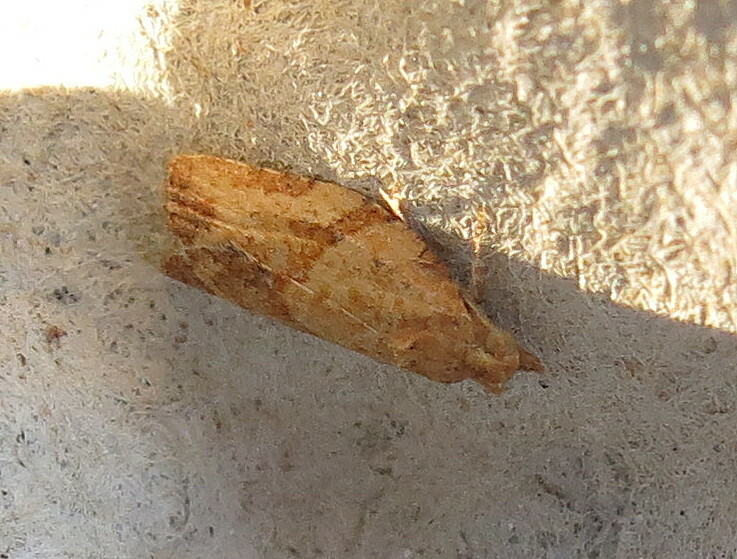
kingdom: Animalia
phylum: Arthropoda
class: Insecta
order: Lepidoptera
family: Tortricidae
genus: Epiphyas
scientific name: Epiphyas postvittana
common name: Light brown apple moth
